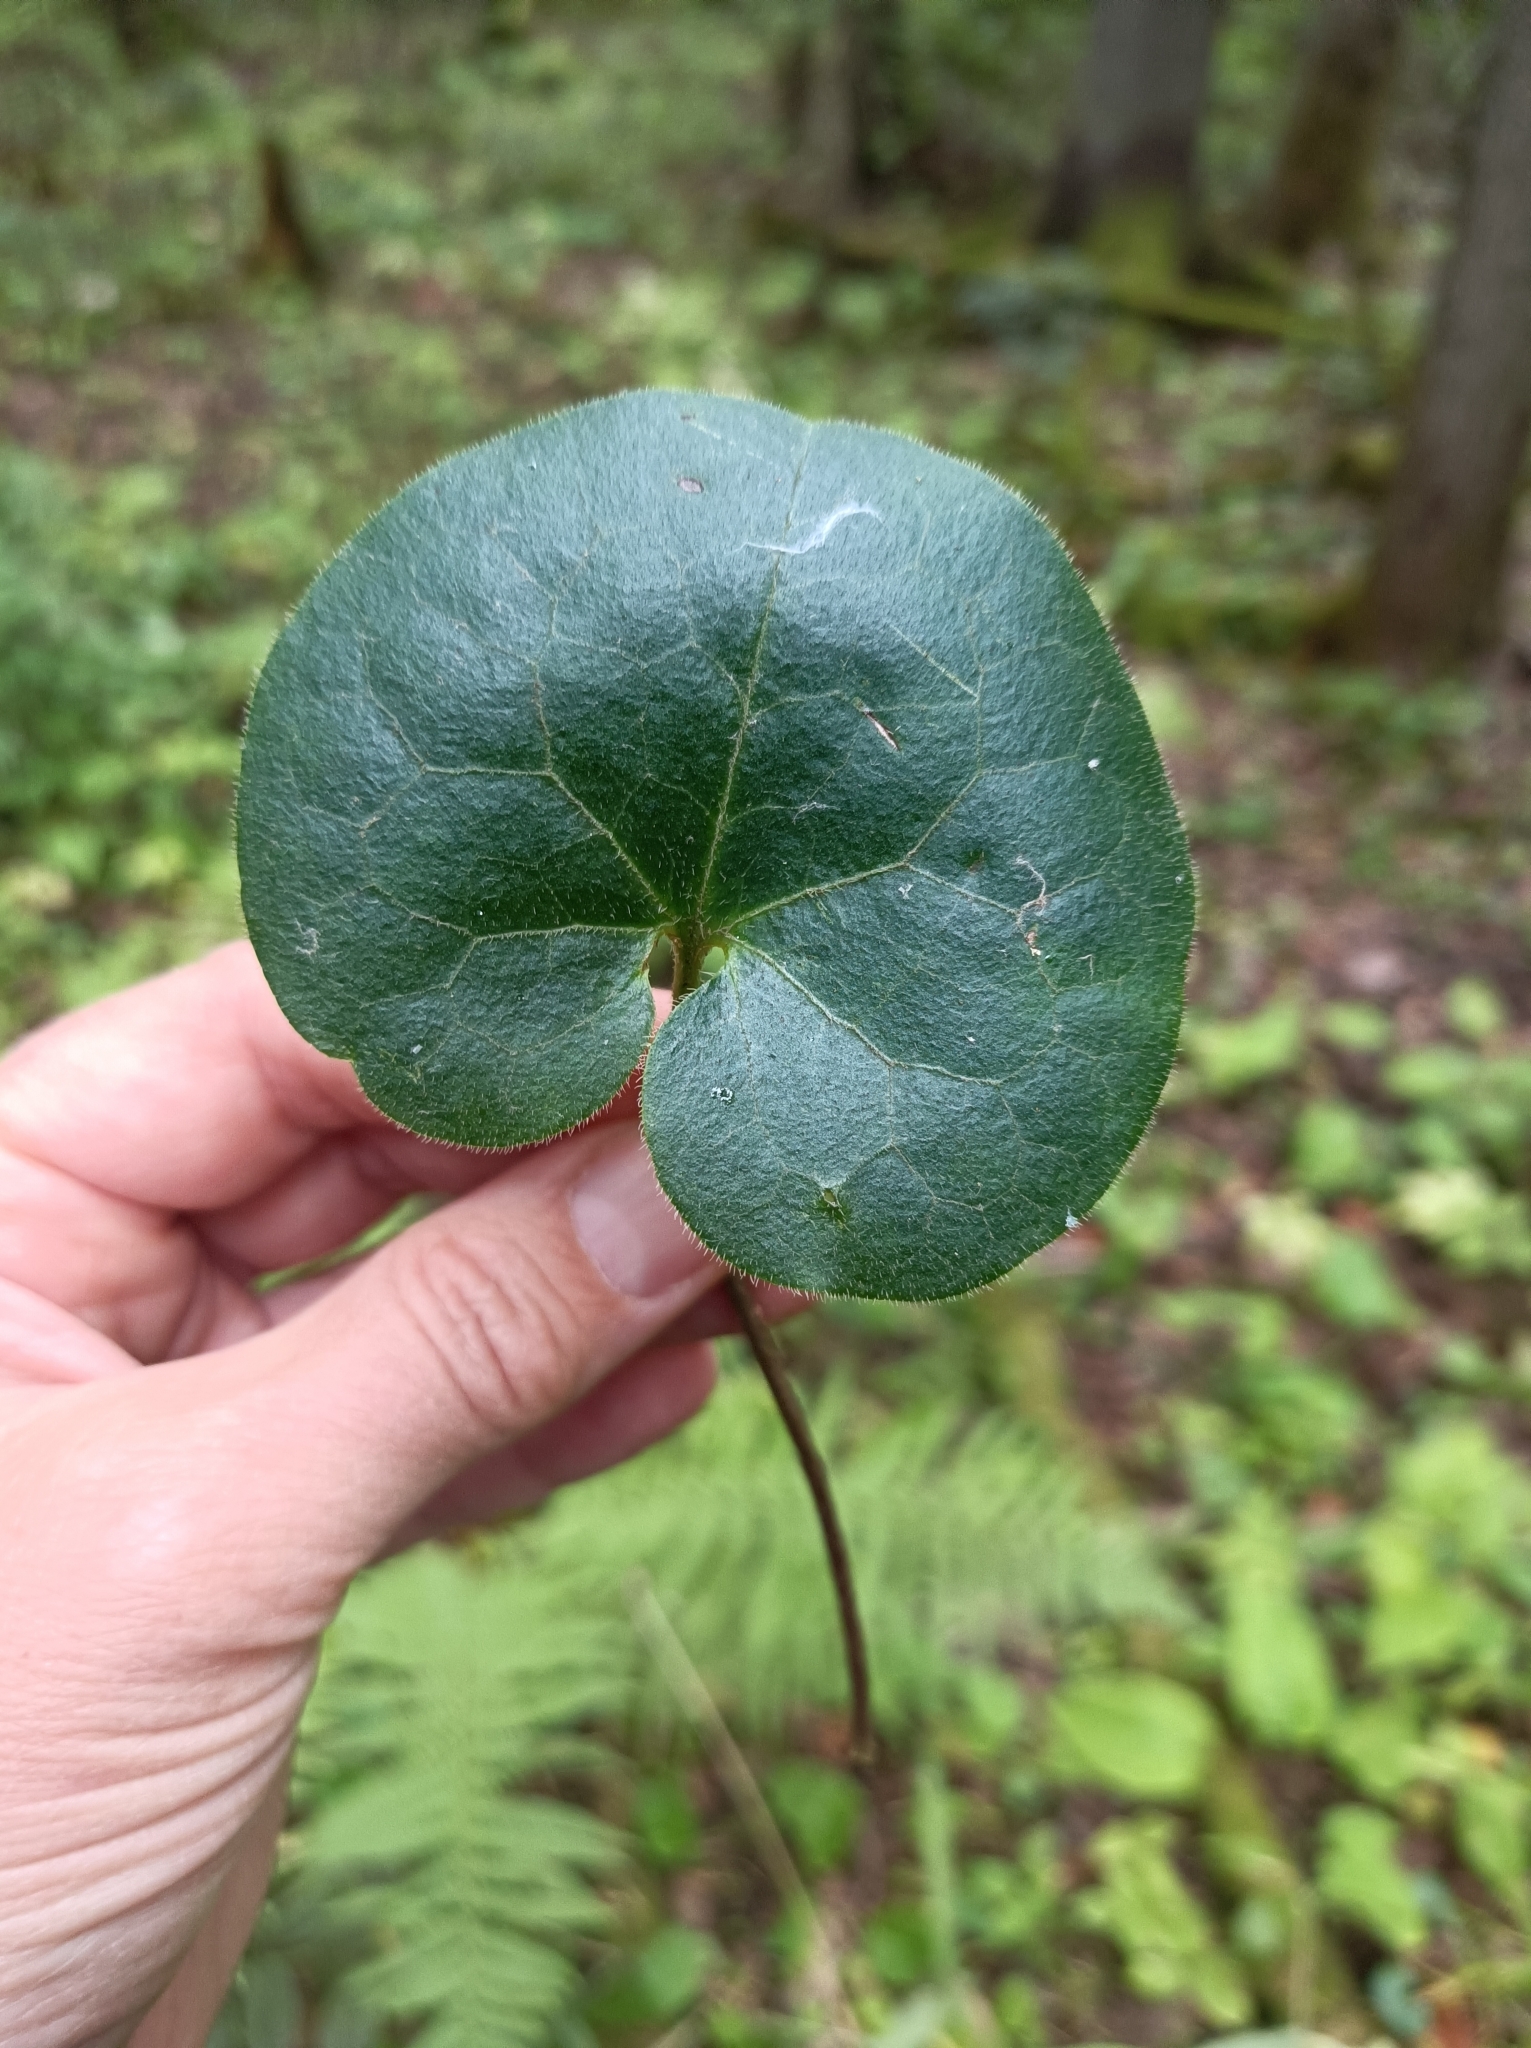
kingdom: Plantae
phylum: Tracheophyta
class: Magnoliopsida
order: Piperales
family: Aristolochiaceae
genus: Asarum
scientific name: Asarum europaeum
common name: Asarabacca
